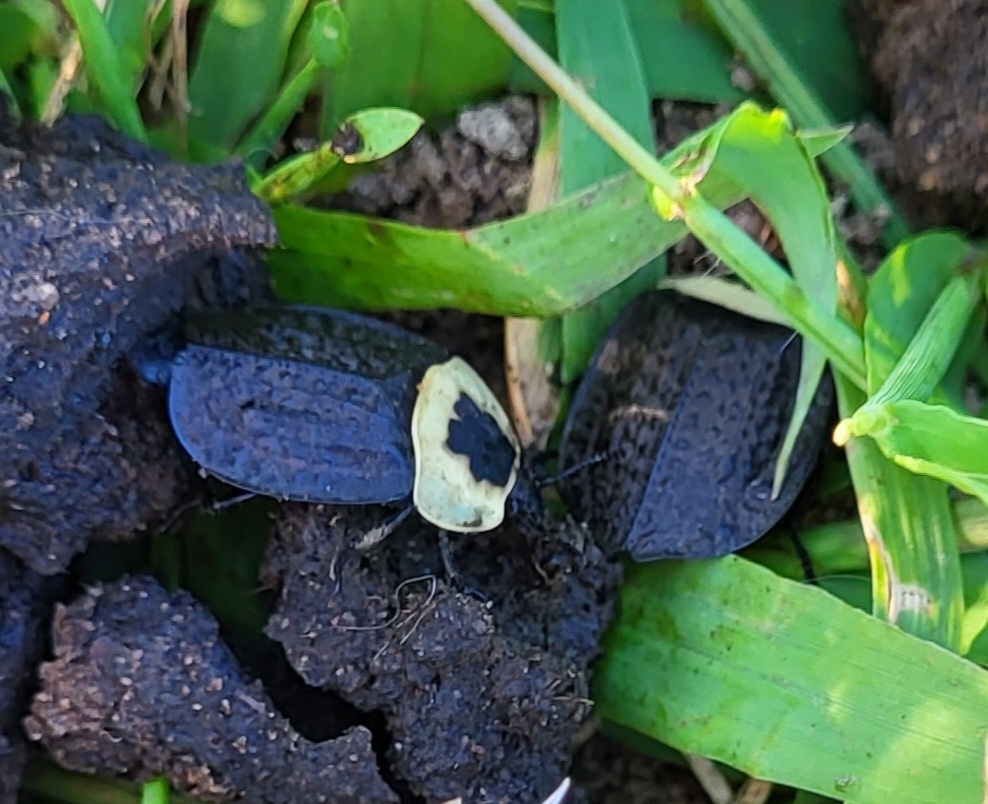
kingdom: Animalia
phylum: Arthropoda
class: Insecta
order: Coleoptera
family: Staphylinidae
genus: Necrophila
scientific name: Necrophila americana
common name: American carrion beetle
